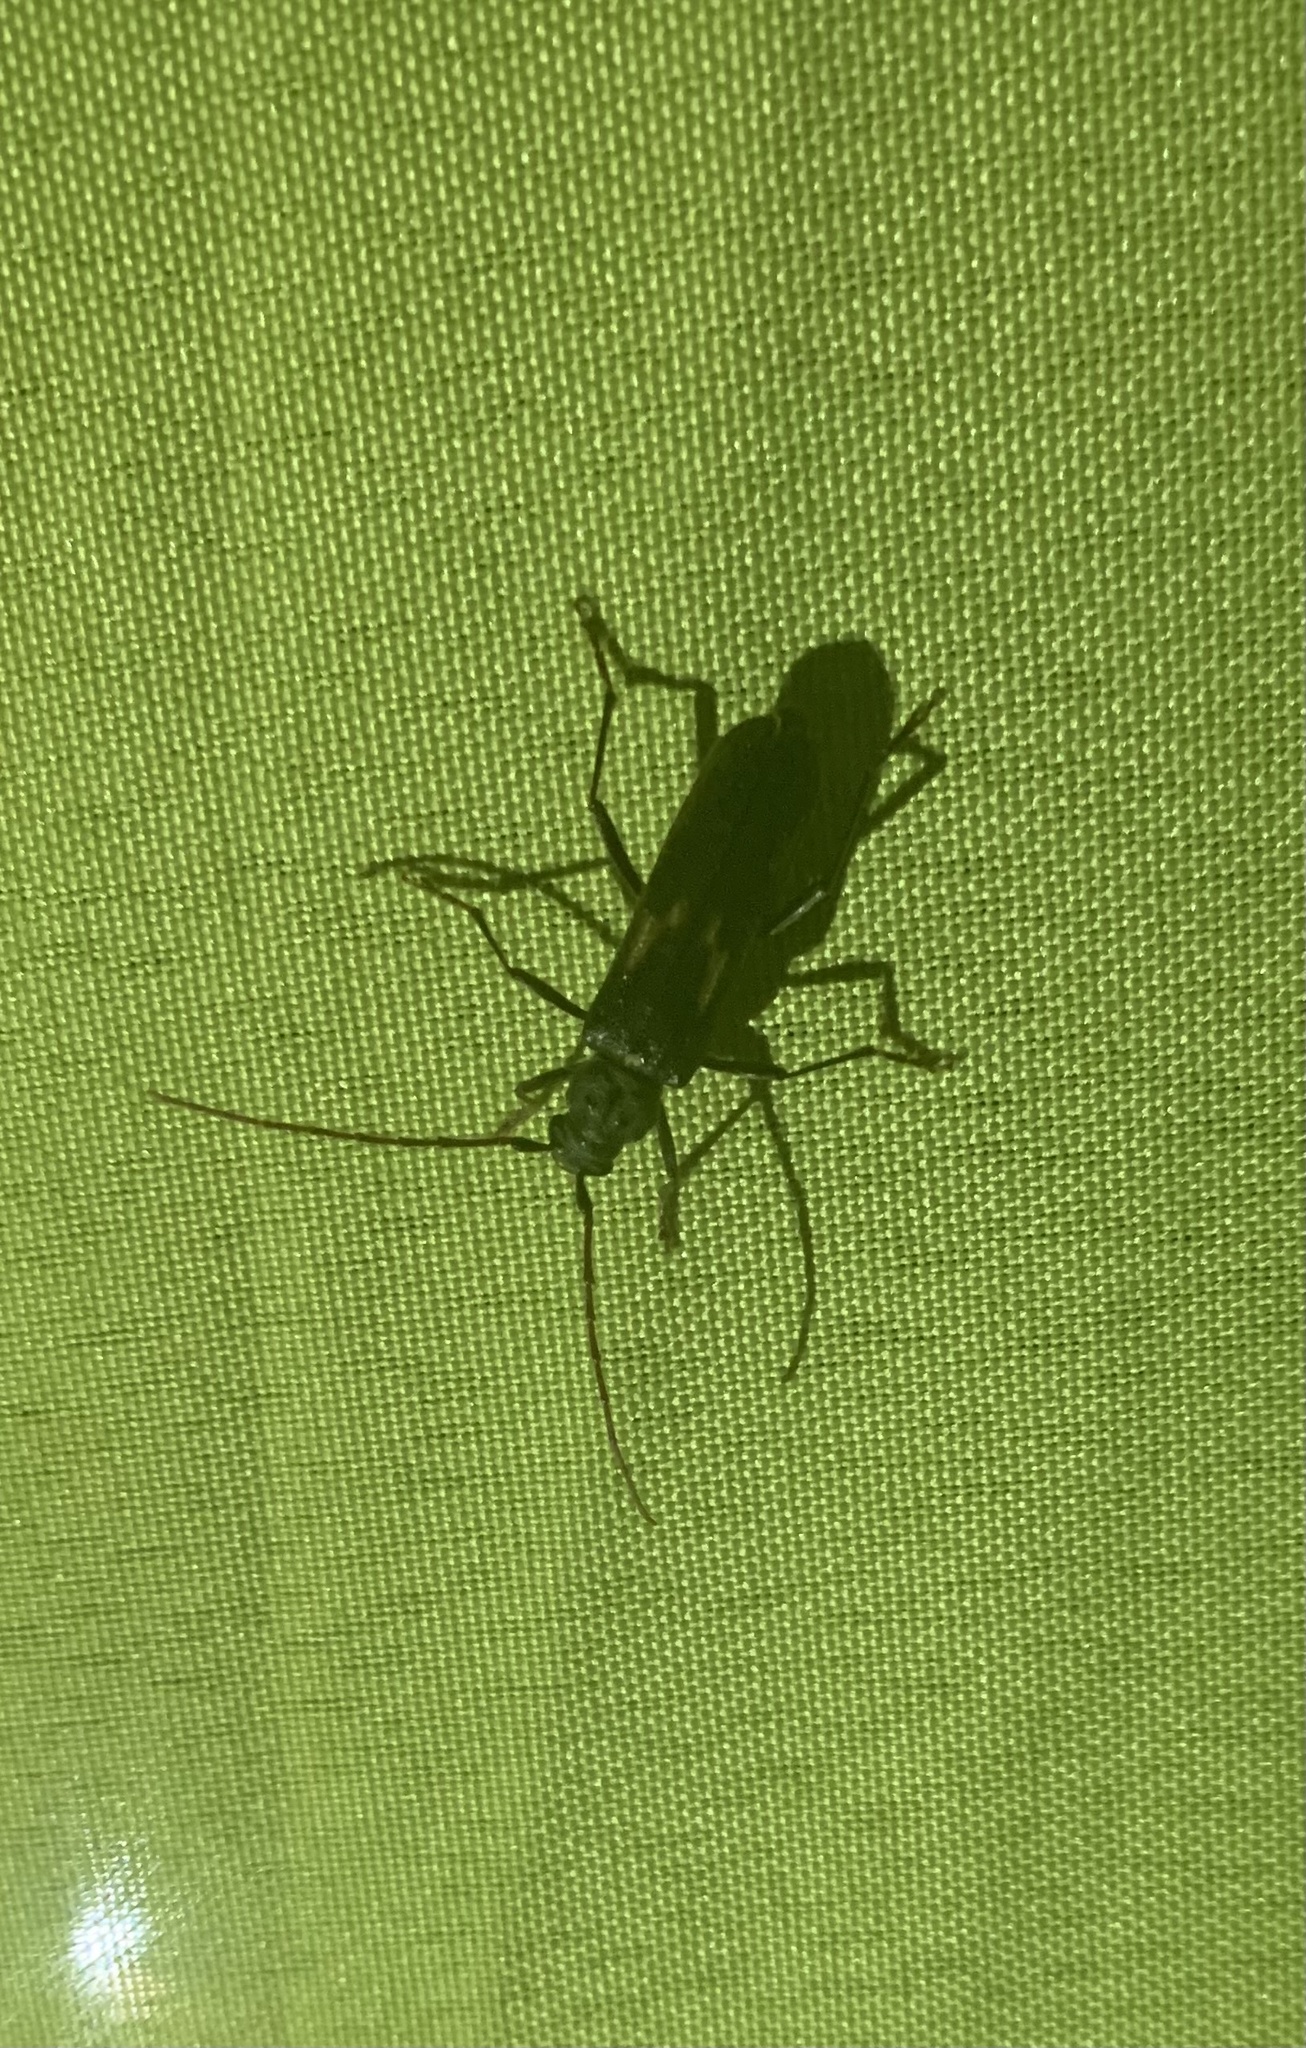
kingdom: Animalia
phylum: Arthropoda
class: Insecta
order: Coleoptera
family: Cerambycidae
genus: Grammicosum
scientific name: Grammicosum flavofasciatum
